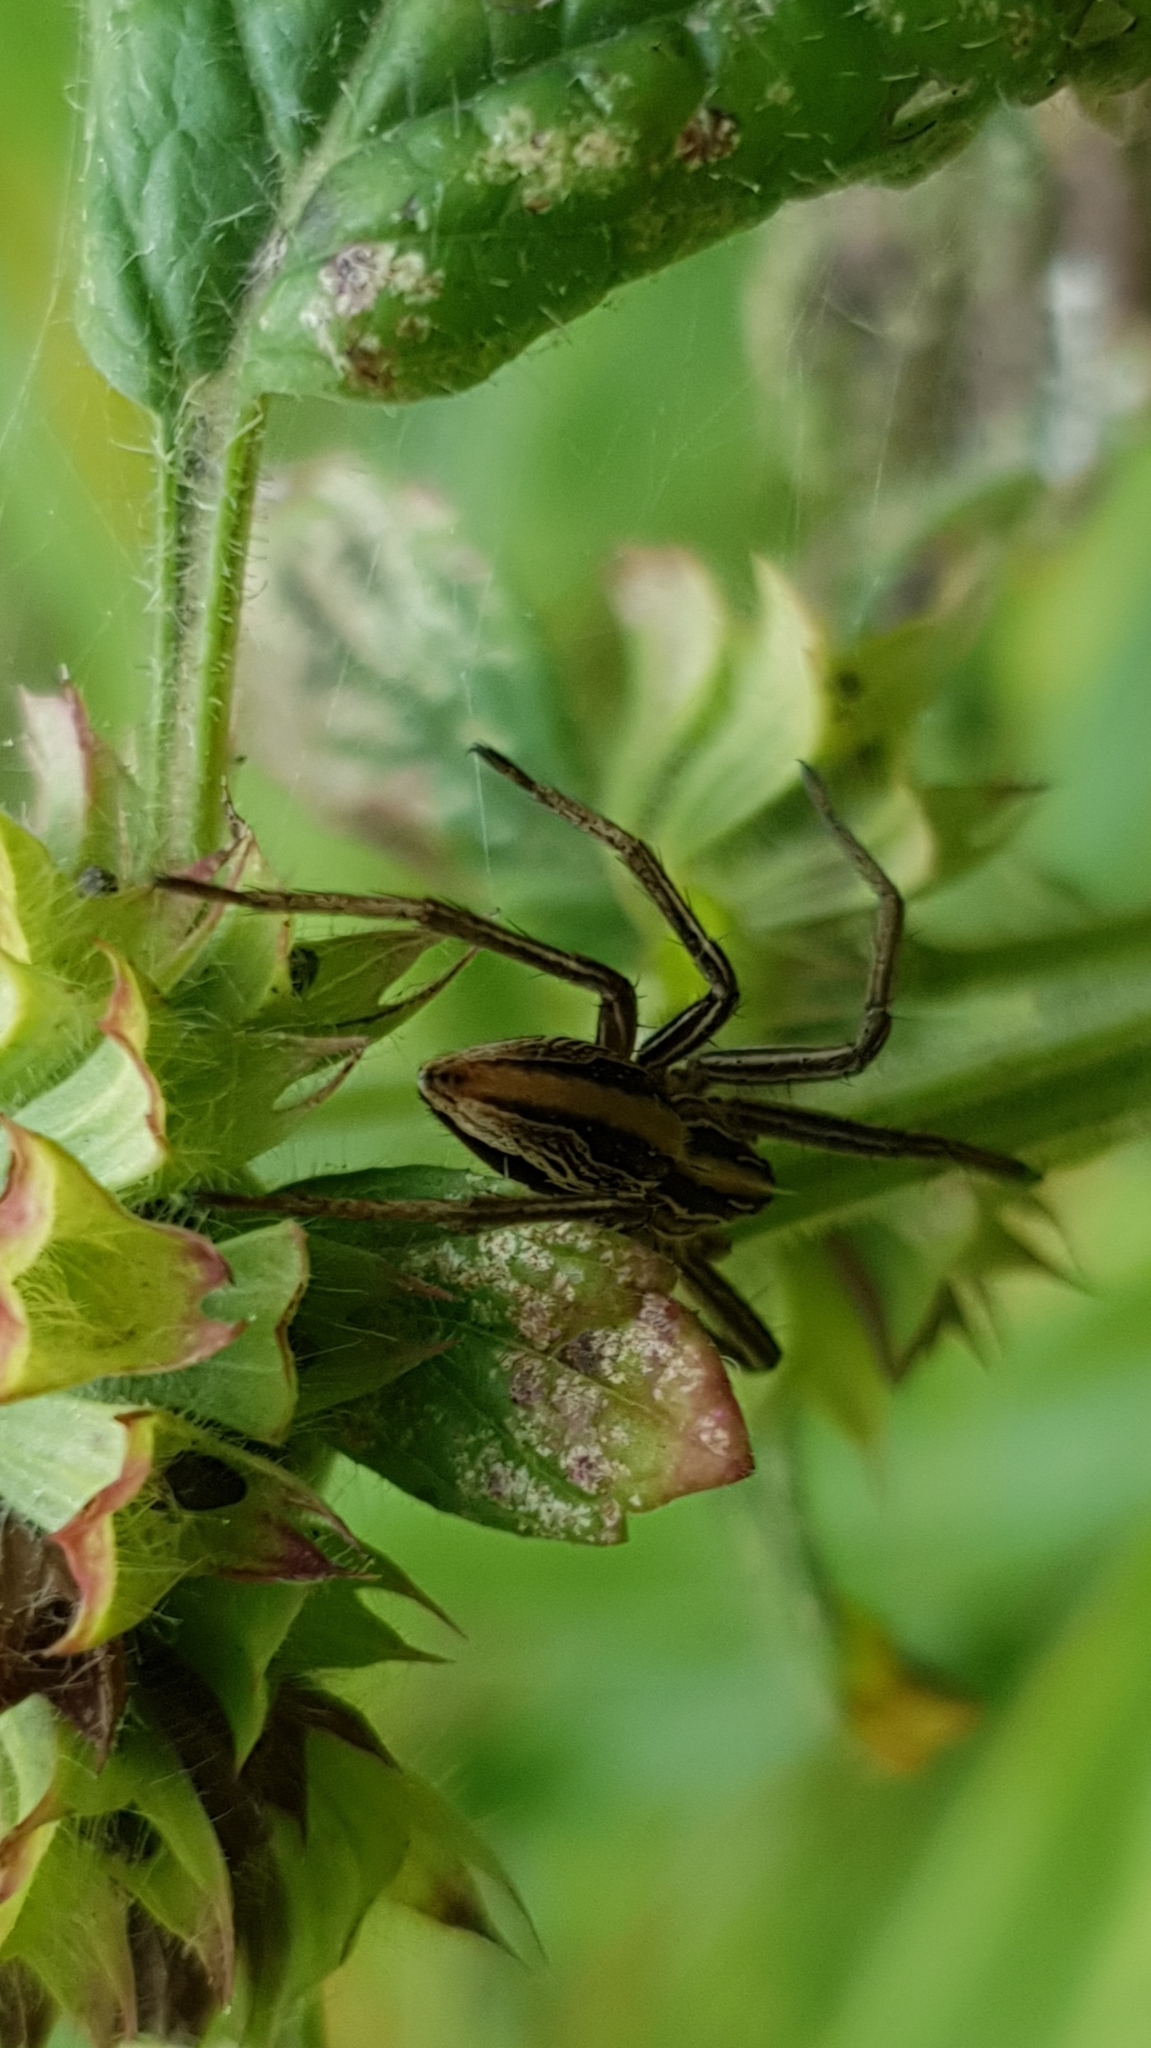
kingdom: Animalia
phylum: Arthropoda
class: Arachnida
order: Araneae
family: Pisauridae
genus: Pisaura
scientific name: Pisaura mirabilis
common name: Tent spider
